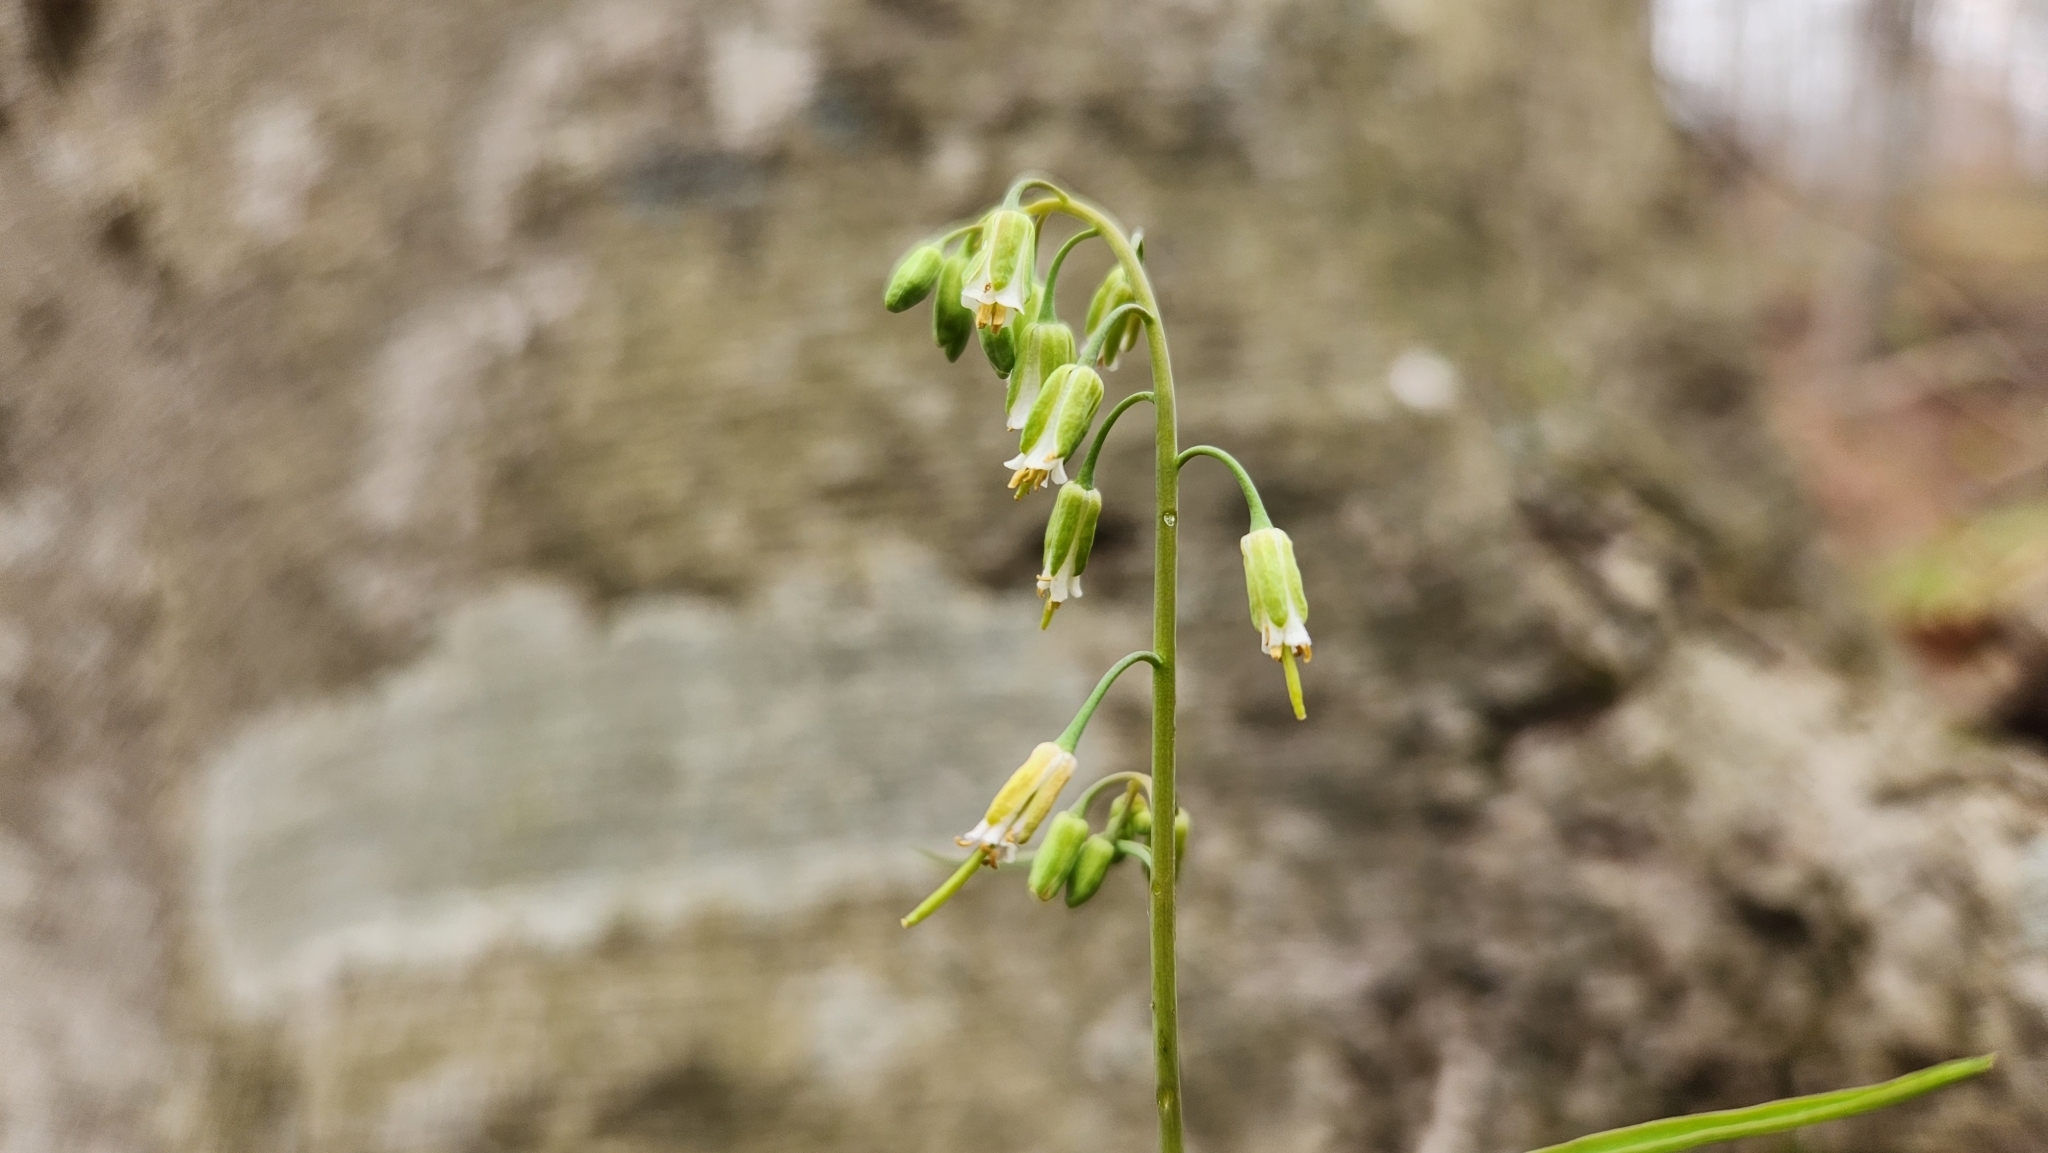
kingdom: Plantae
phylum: Tracheophyta
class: Magnoliopsida
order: Brassicales
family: Brassicaceae
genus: Borodinia
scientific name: Borodinia laevigata
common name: Smooth rockcress
